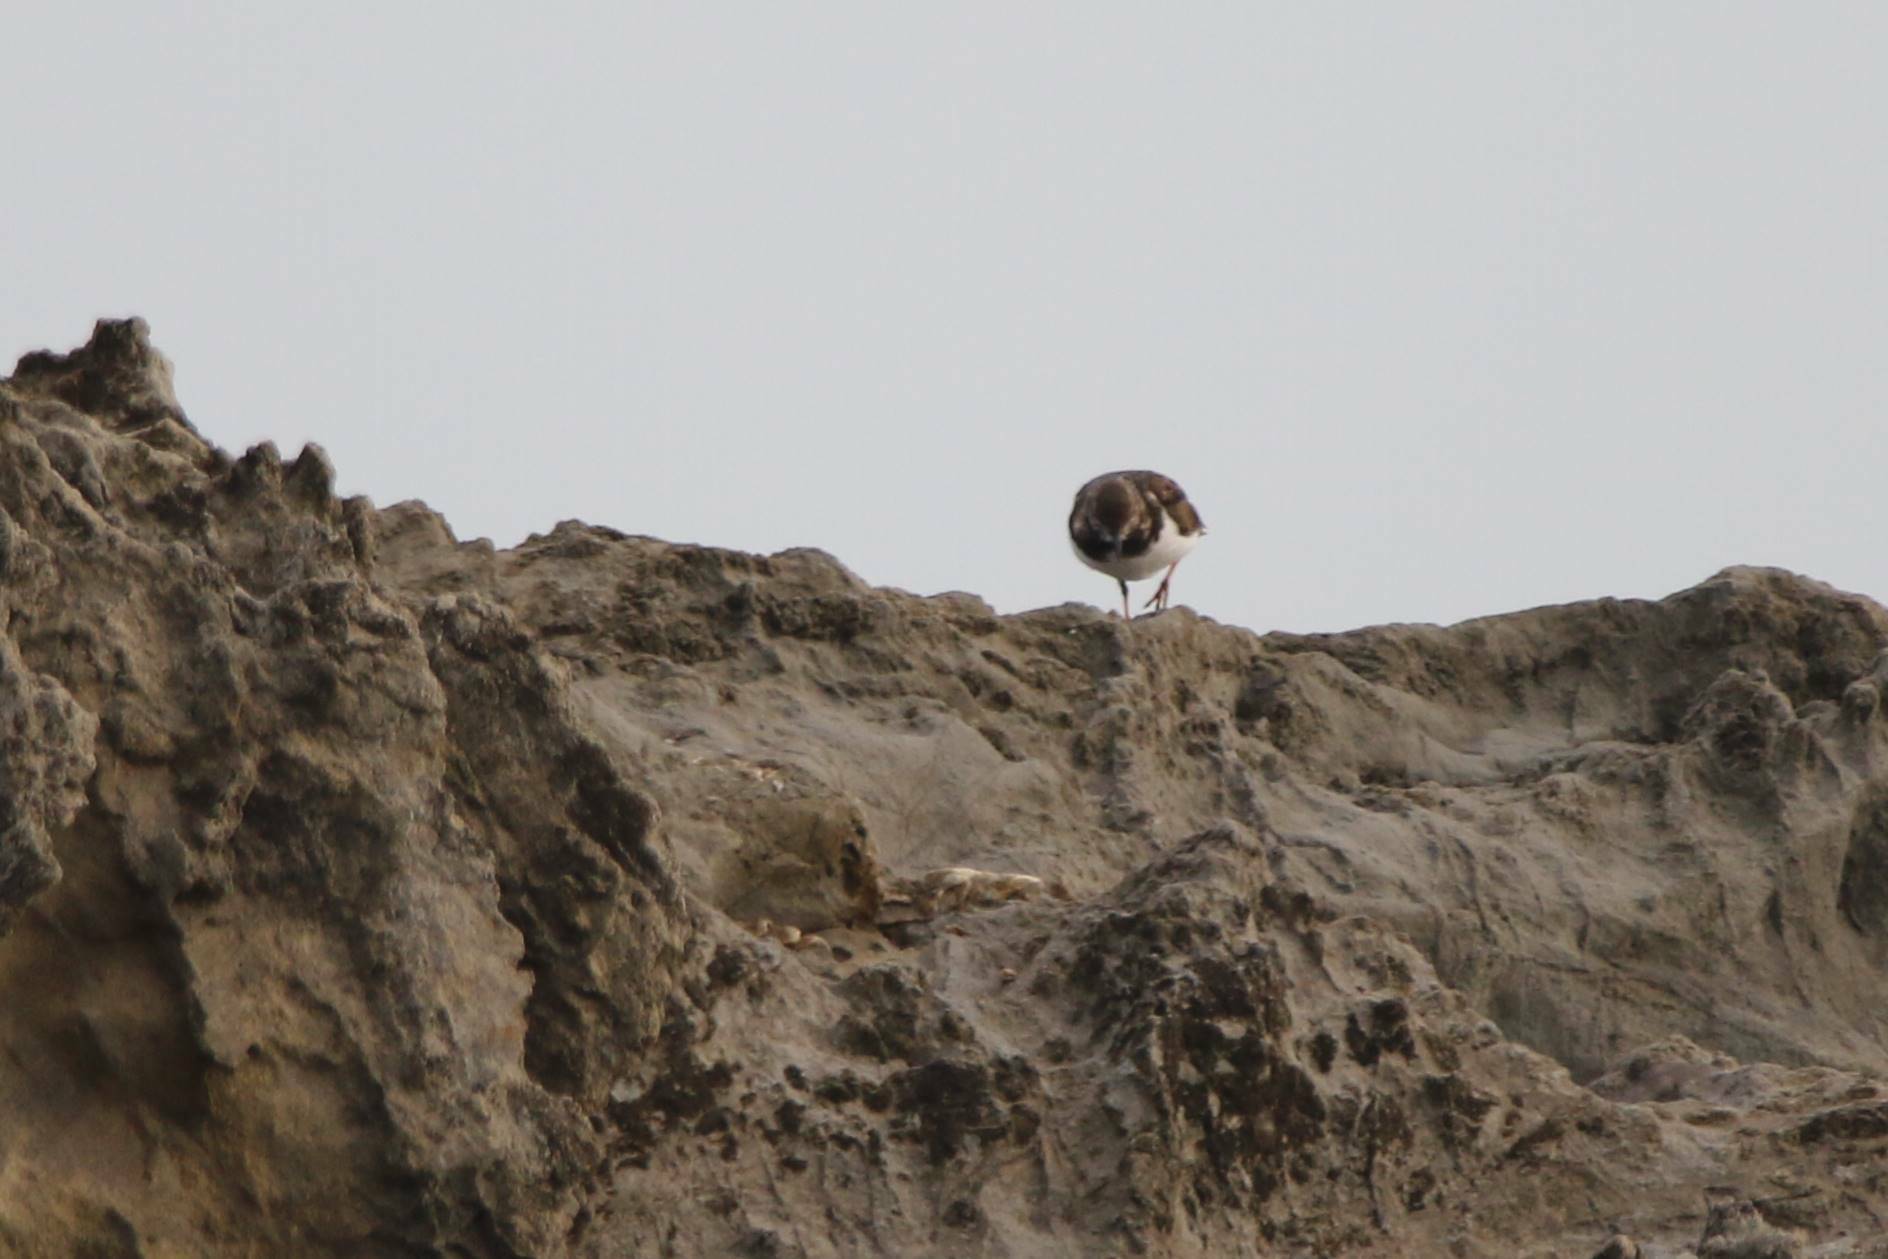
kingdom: Animalia
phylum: Chordata
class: Aves
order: Charadriiformes
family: Scolopacidae
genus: Arenaria
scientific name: Arenaria interpres
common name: Ruddy turnstone
